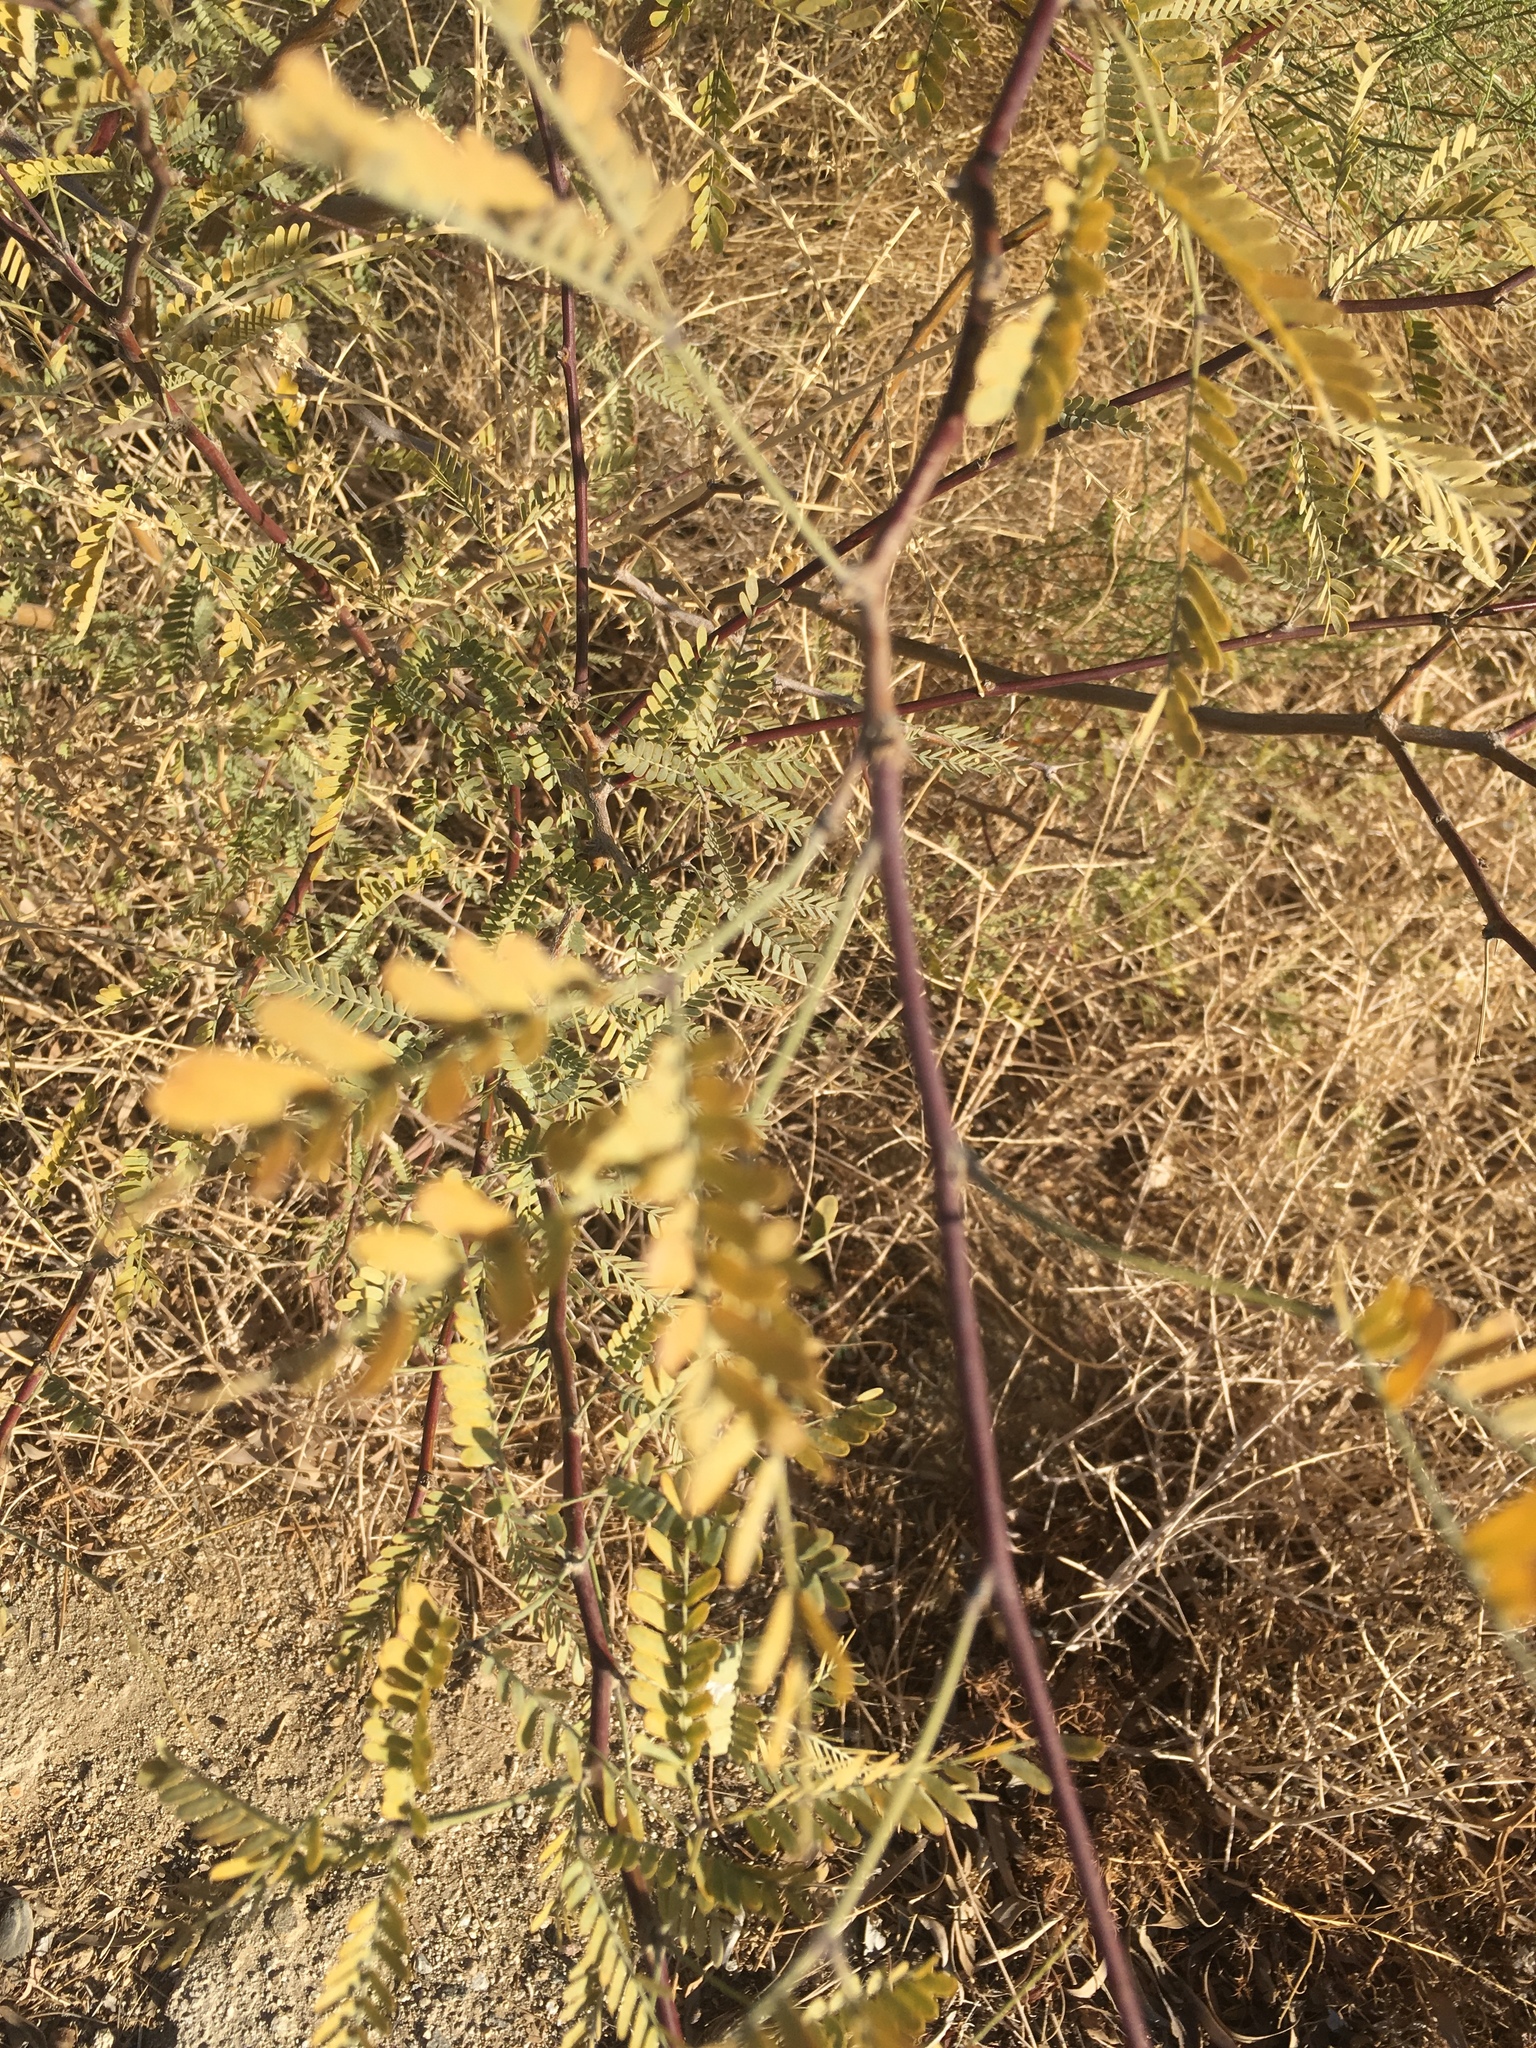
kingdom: Plantae
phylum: Tracheophyta
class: Magnoliopsida
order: Fabales
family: Fabaceae
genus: Prosopis
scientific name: Prosopis pubescens
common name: Screw-bean
